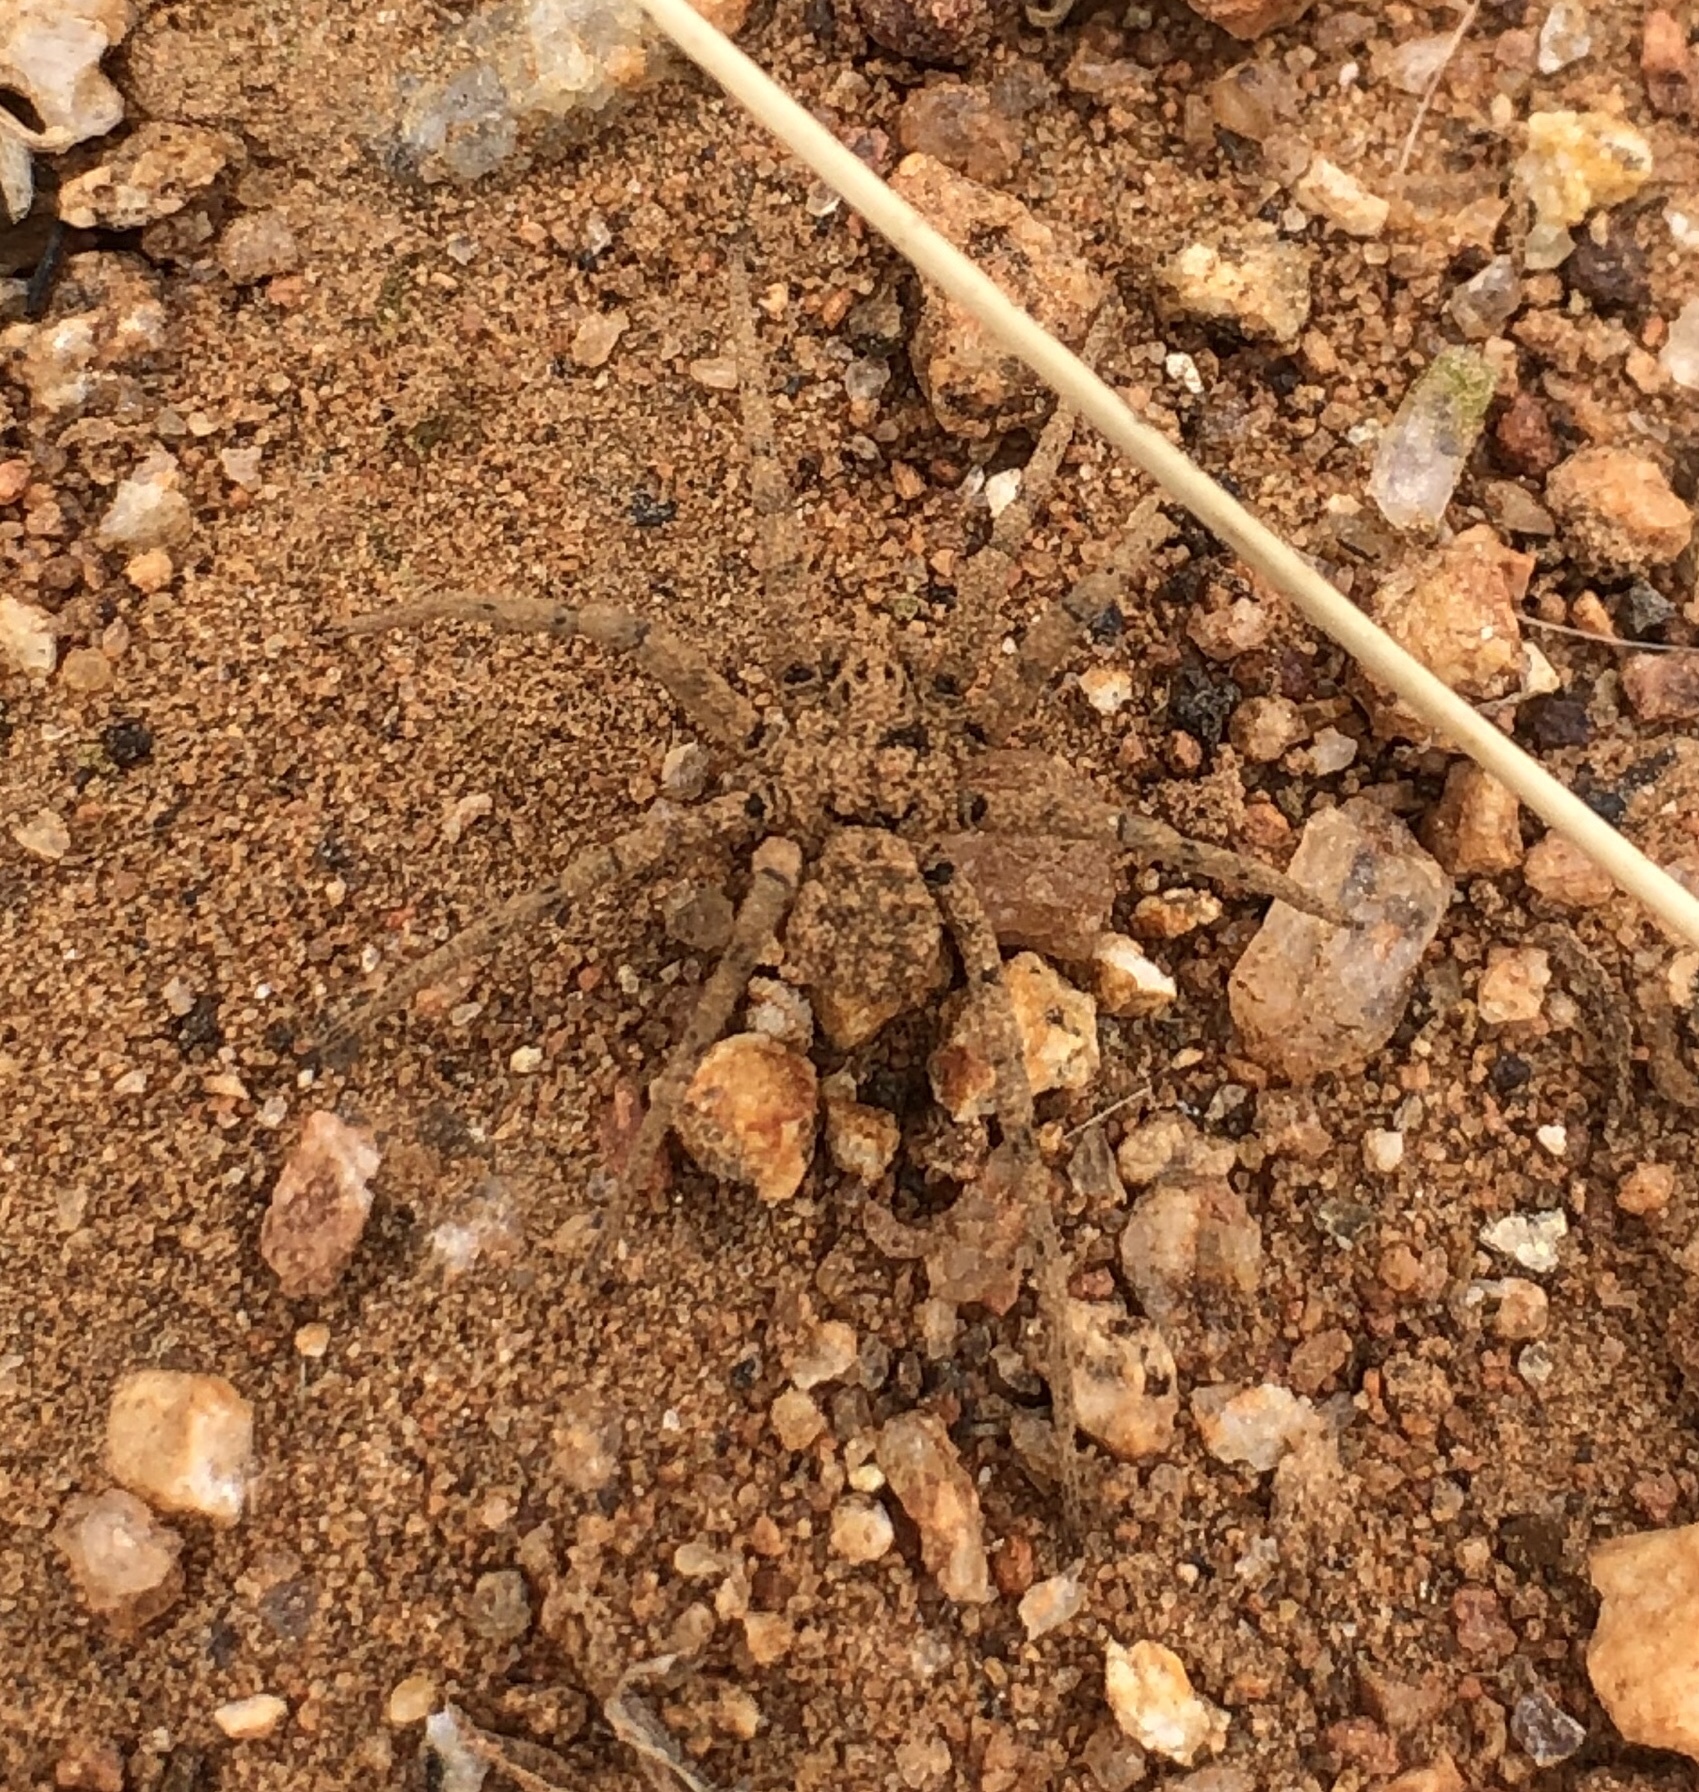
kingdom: Animalia
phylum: Arthropoda
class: Arachnida
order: Araneae
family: Homalonychidae
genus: Homalonychus
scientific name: Homalonychus theologus
